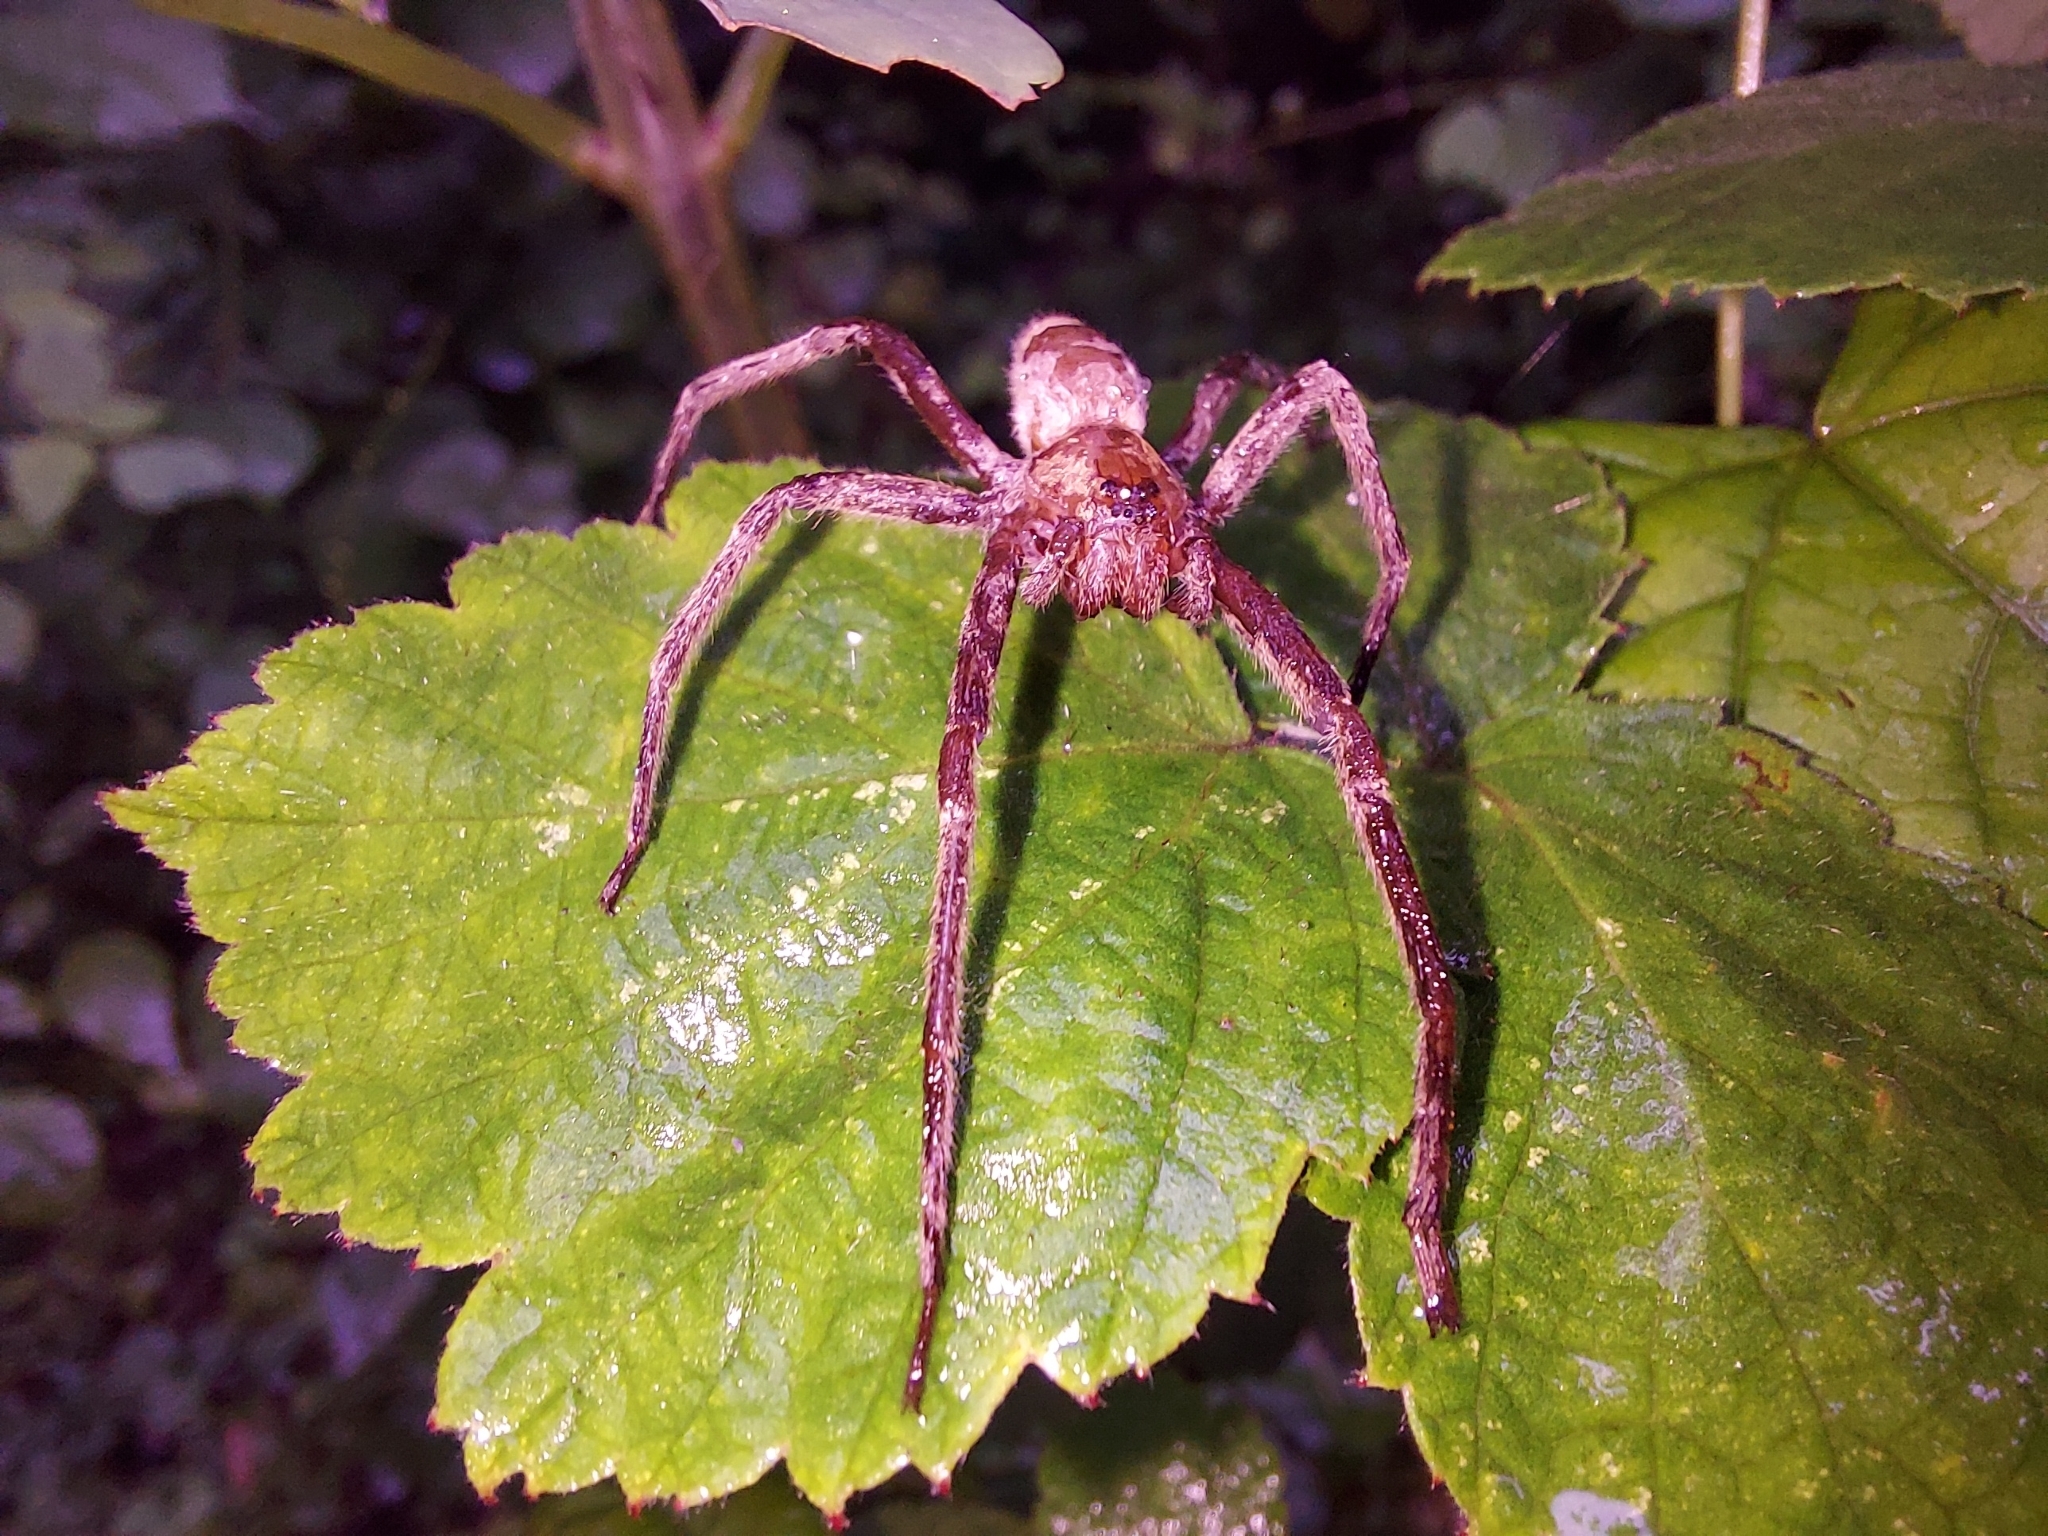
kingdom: Animalia
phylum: Arthropoda
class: Arachnida
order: Araneae
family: Pisauridae
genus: Pisaurina
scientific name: Pisaurina mira
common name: American nursery web spider
